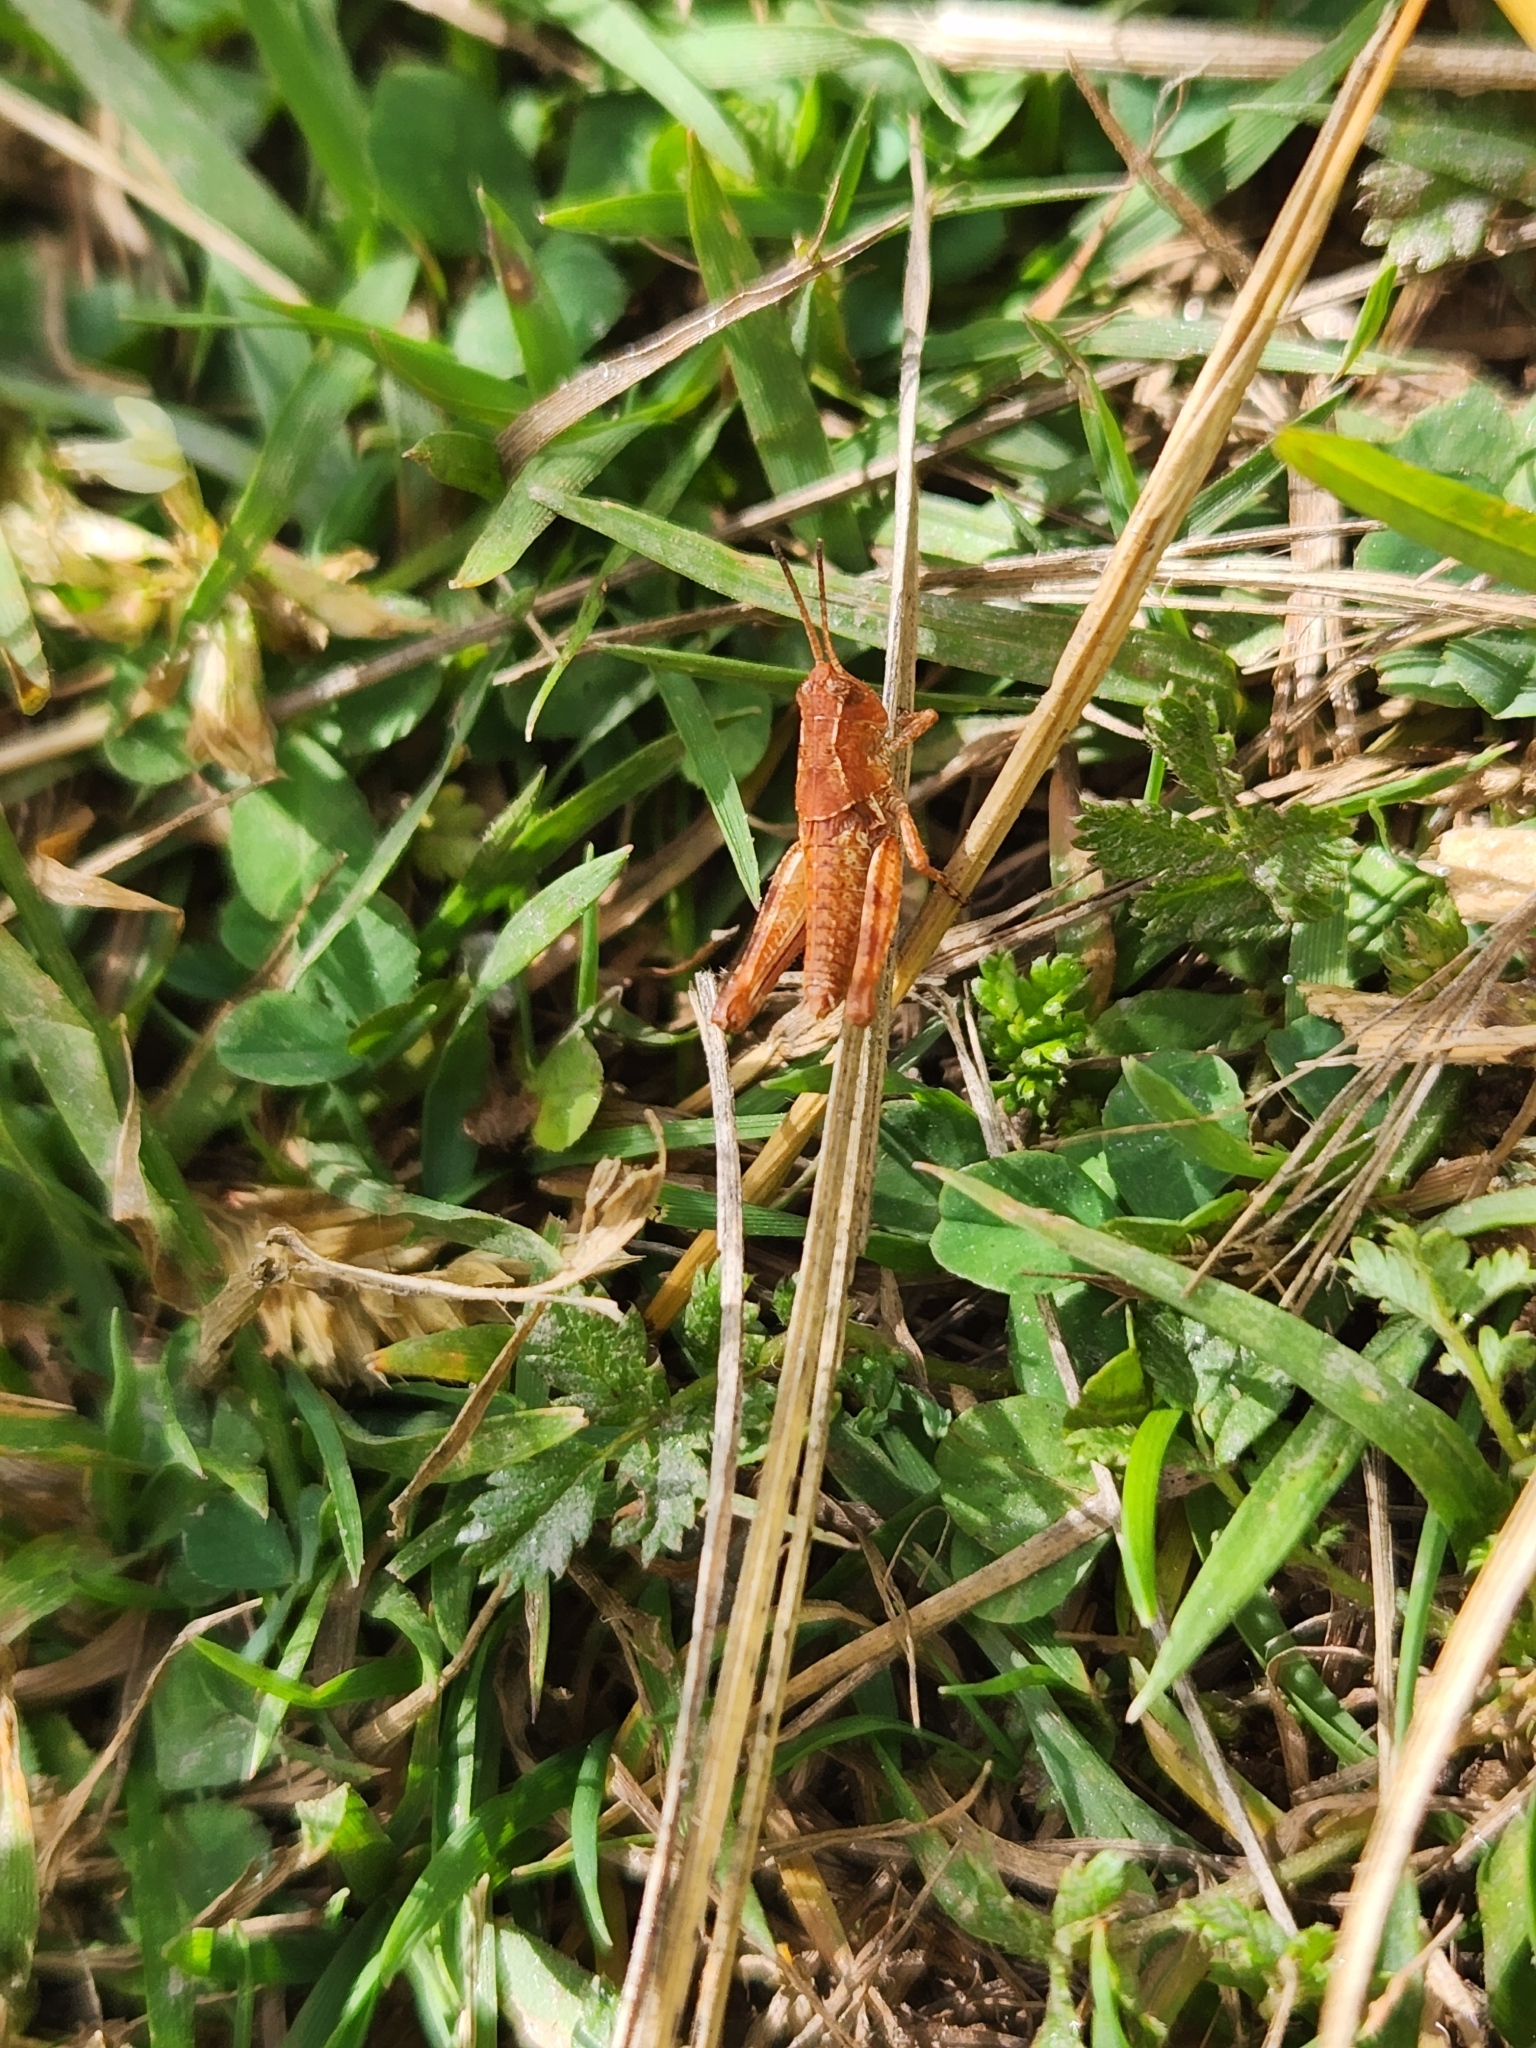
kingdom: Animalia
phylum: Arthropoda
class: Insecta
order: Orthoptera
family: Acrididae
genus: Phaulacridium
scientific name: Phaulacridium marginale
